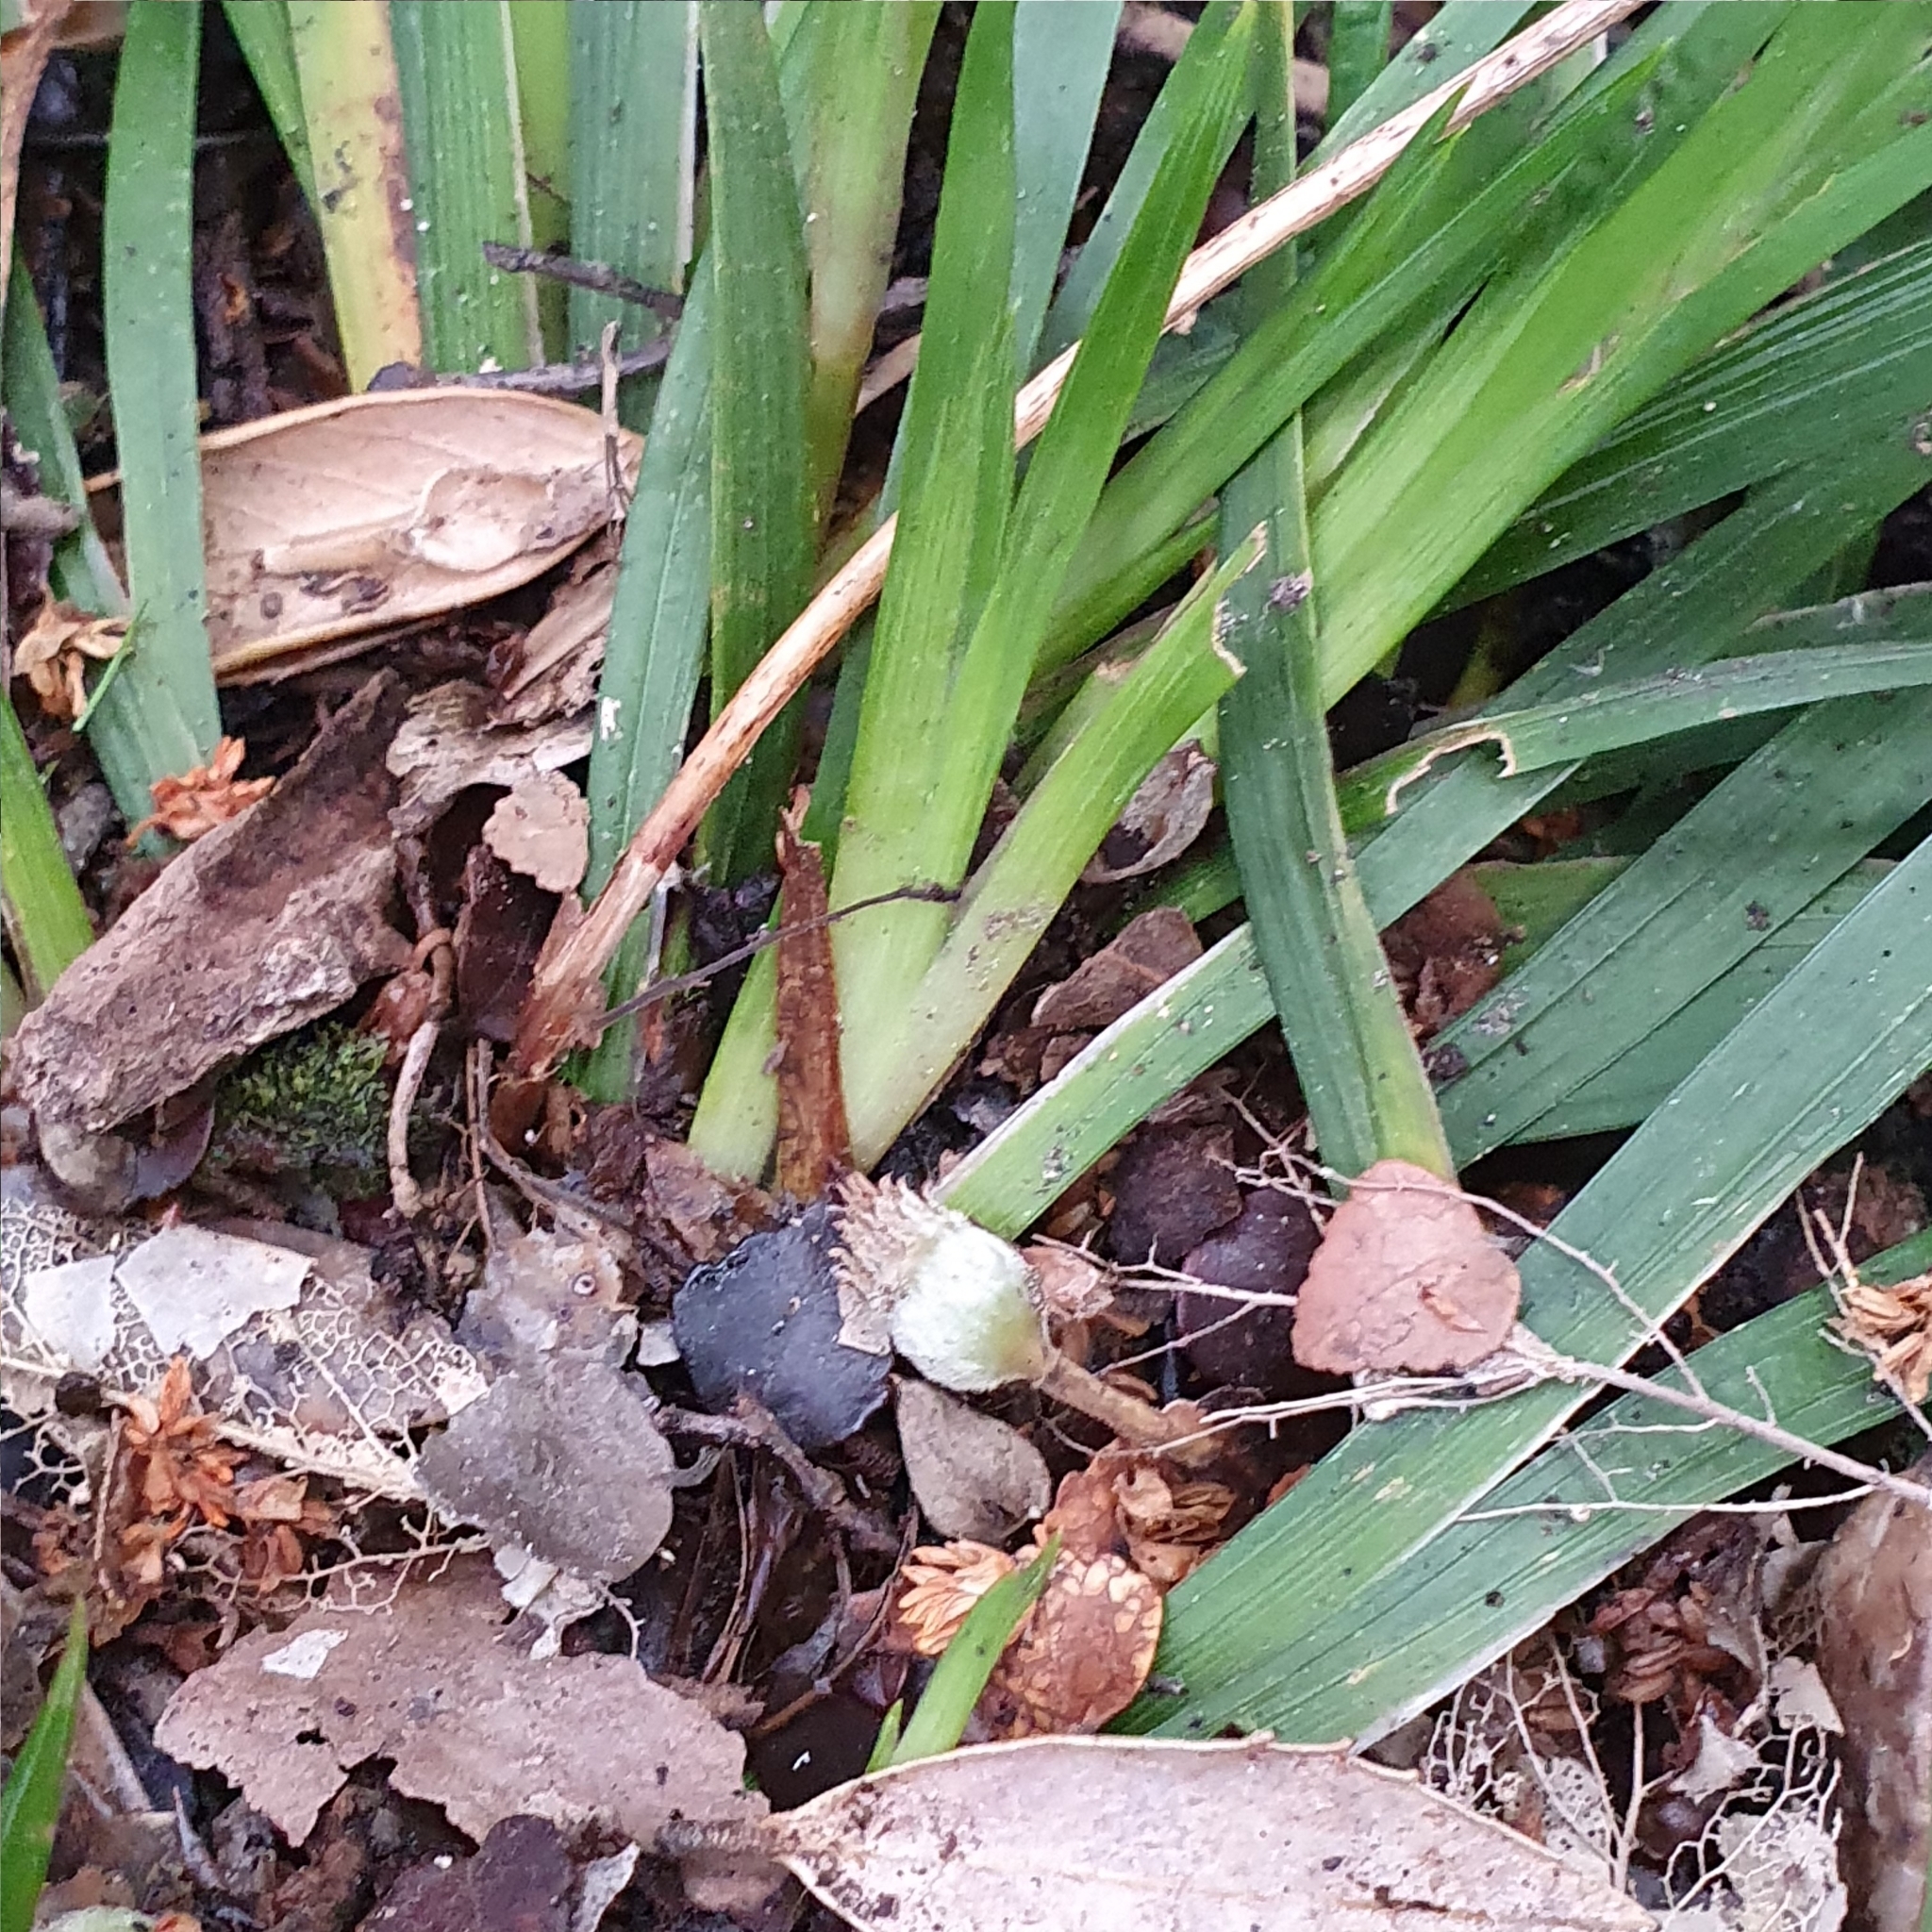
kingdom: Plantae
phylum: Tracheophyta
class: Liliopsida
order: Asparagales
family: Iridaceae
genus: Libertia
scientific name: Libertia pulchella
